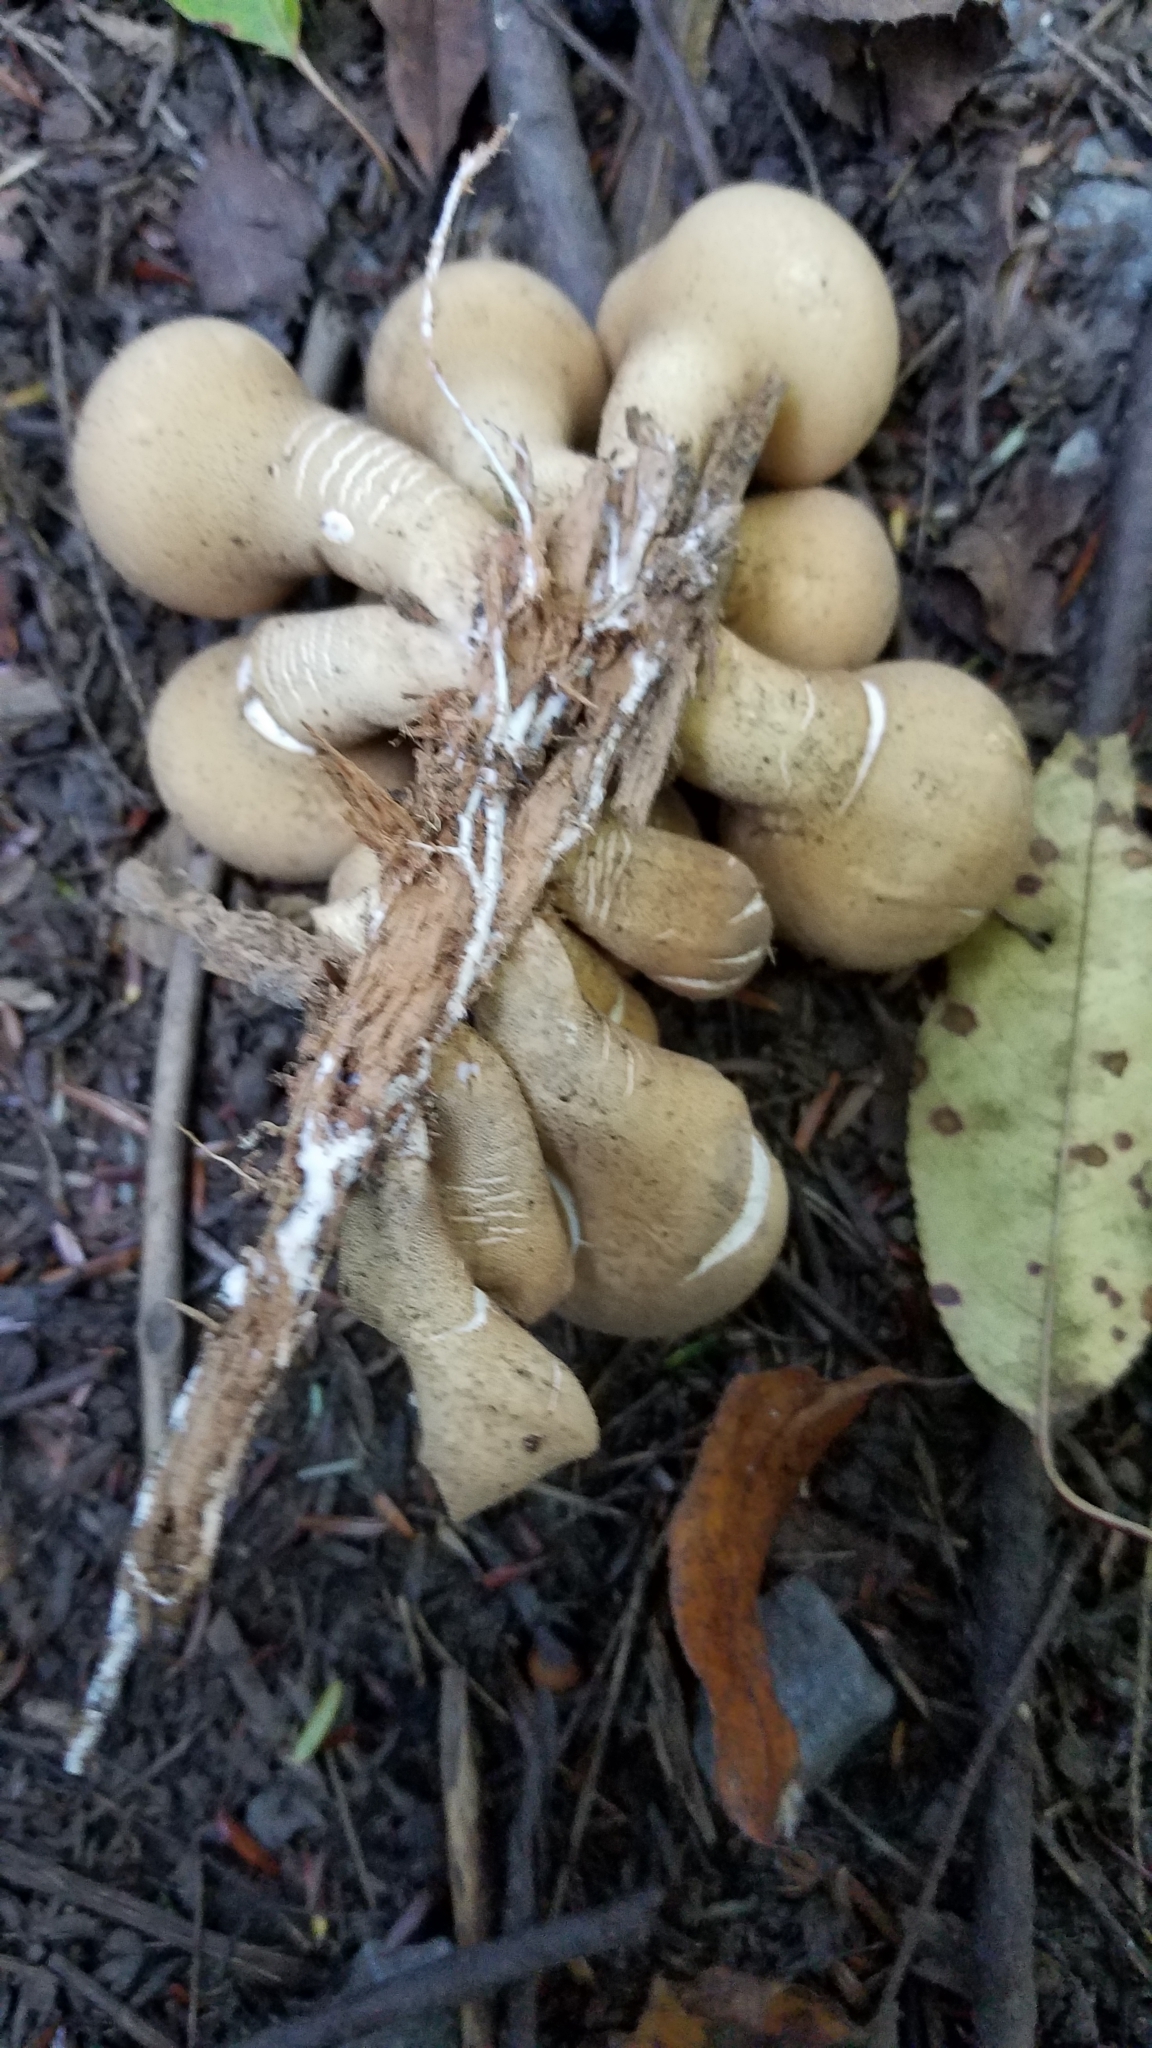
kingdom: Fungi
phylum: Basidiomycota
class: Agaricomycetes
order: Agaricales
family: Lycoperdaceae
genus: Apioperdon
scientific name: Apioperdon pyriforme
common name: Pear-shaped puffball
